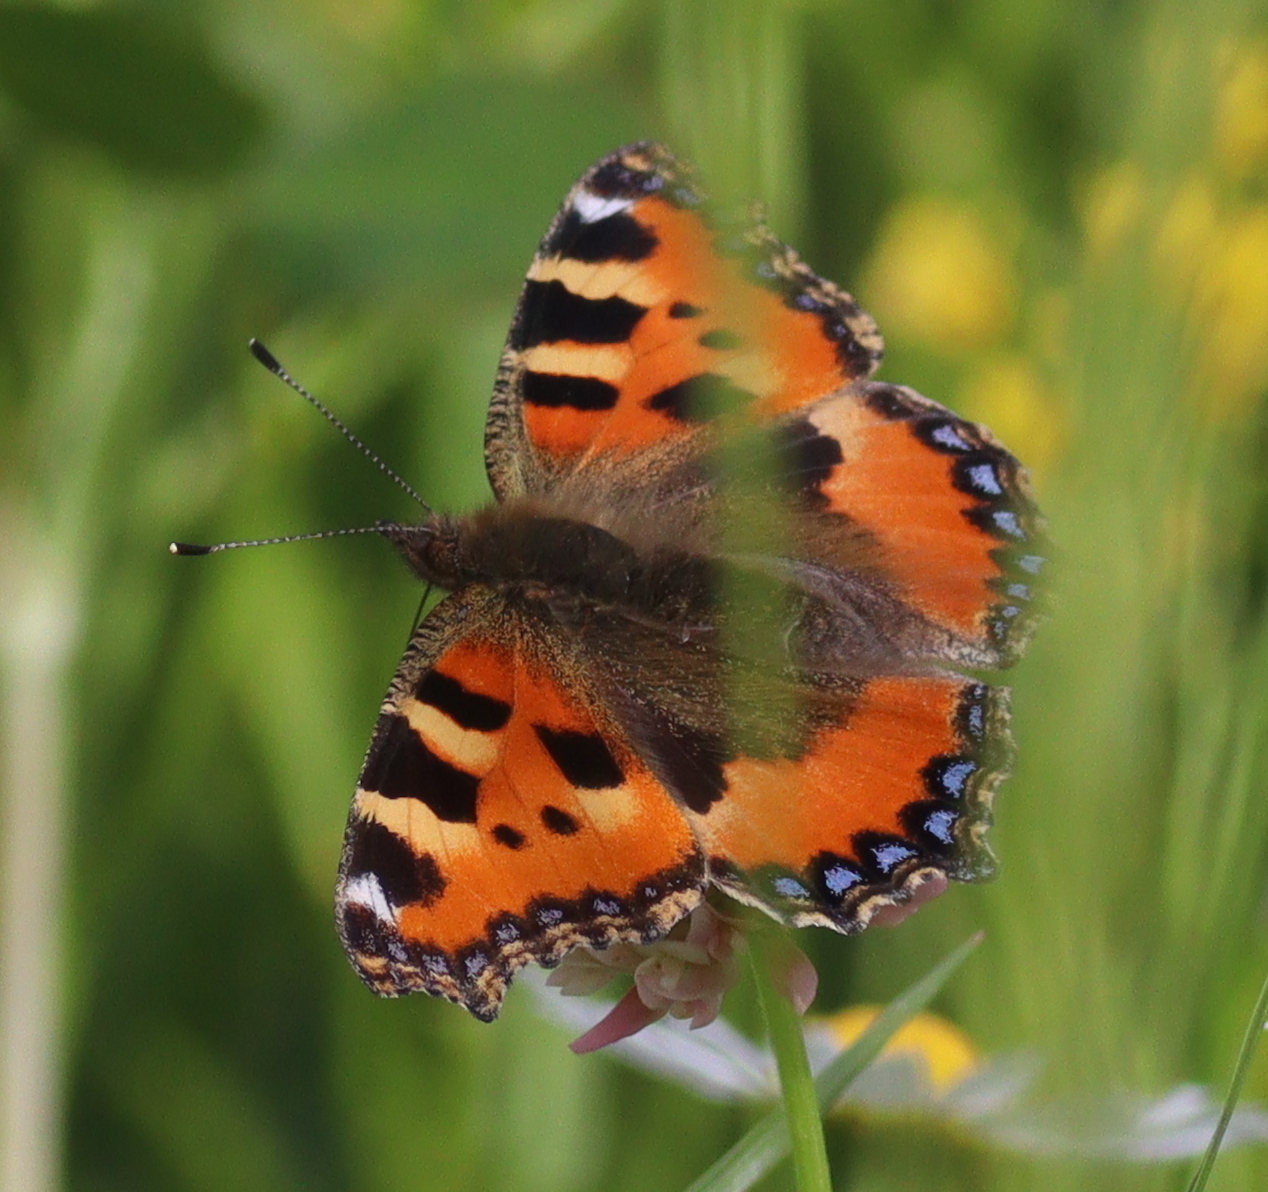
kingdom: Animalia
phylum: Arthropoda
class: Insecta
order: Lepidoptera
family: Nymphalidae
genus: Aglais
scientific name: Aglais urticae
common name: Small tortoiseshell
